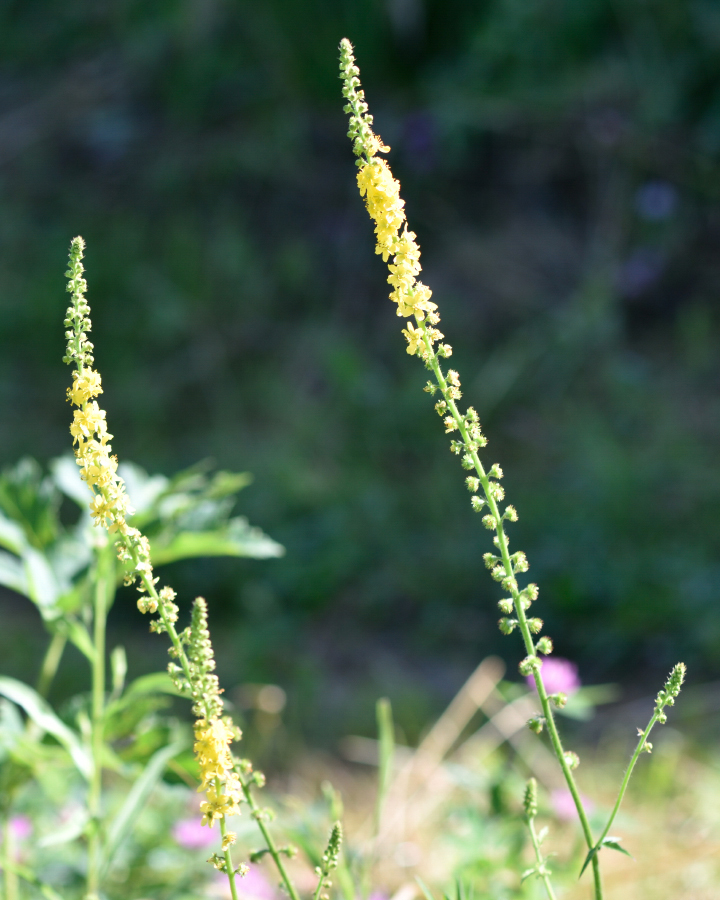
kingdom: Plantae
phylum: Tracheophyta
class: Magnoliopsida
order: Rosales
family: Rosaceae
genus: Agrimonia
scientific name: Agrimonia eupatoria
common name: Agrimony
